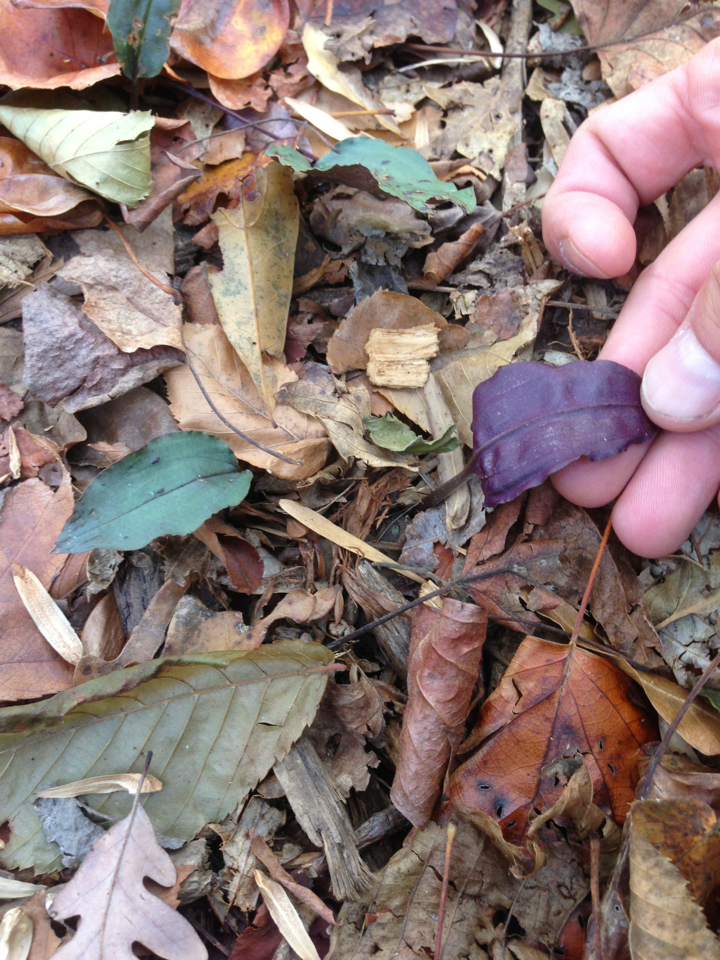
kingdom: Plantae
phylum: Tracheophyta
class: Liliopsida
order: Asparagales
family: Orchidaceae
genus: Tipularia
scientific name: Tipularia discolor
